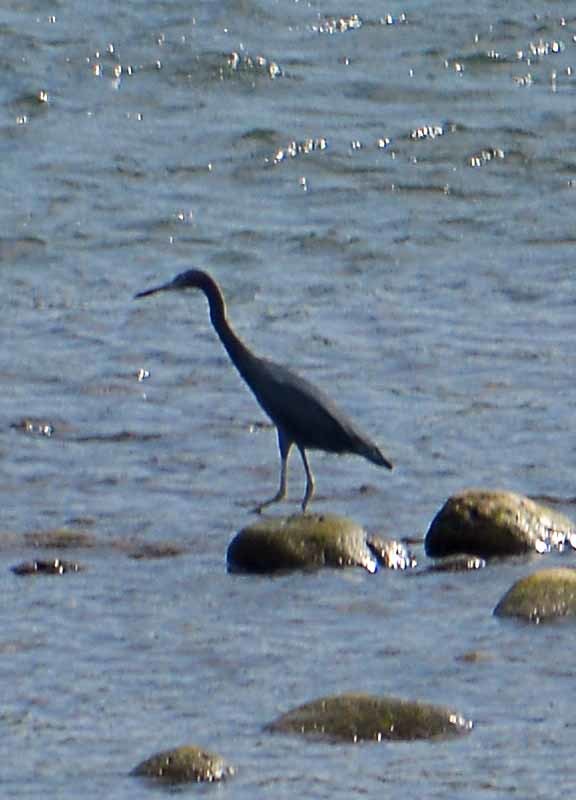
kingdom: Animalia
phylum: Chordata
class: Aves
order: Pelecaniformes
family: Ardeidae
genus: Egretta
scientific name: Egretta caerulea
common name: Little blue heron
